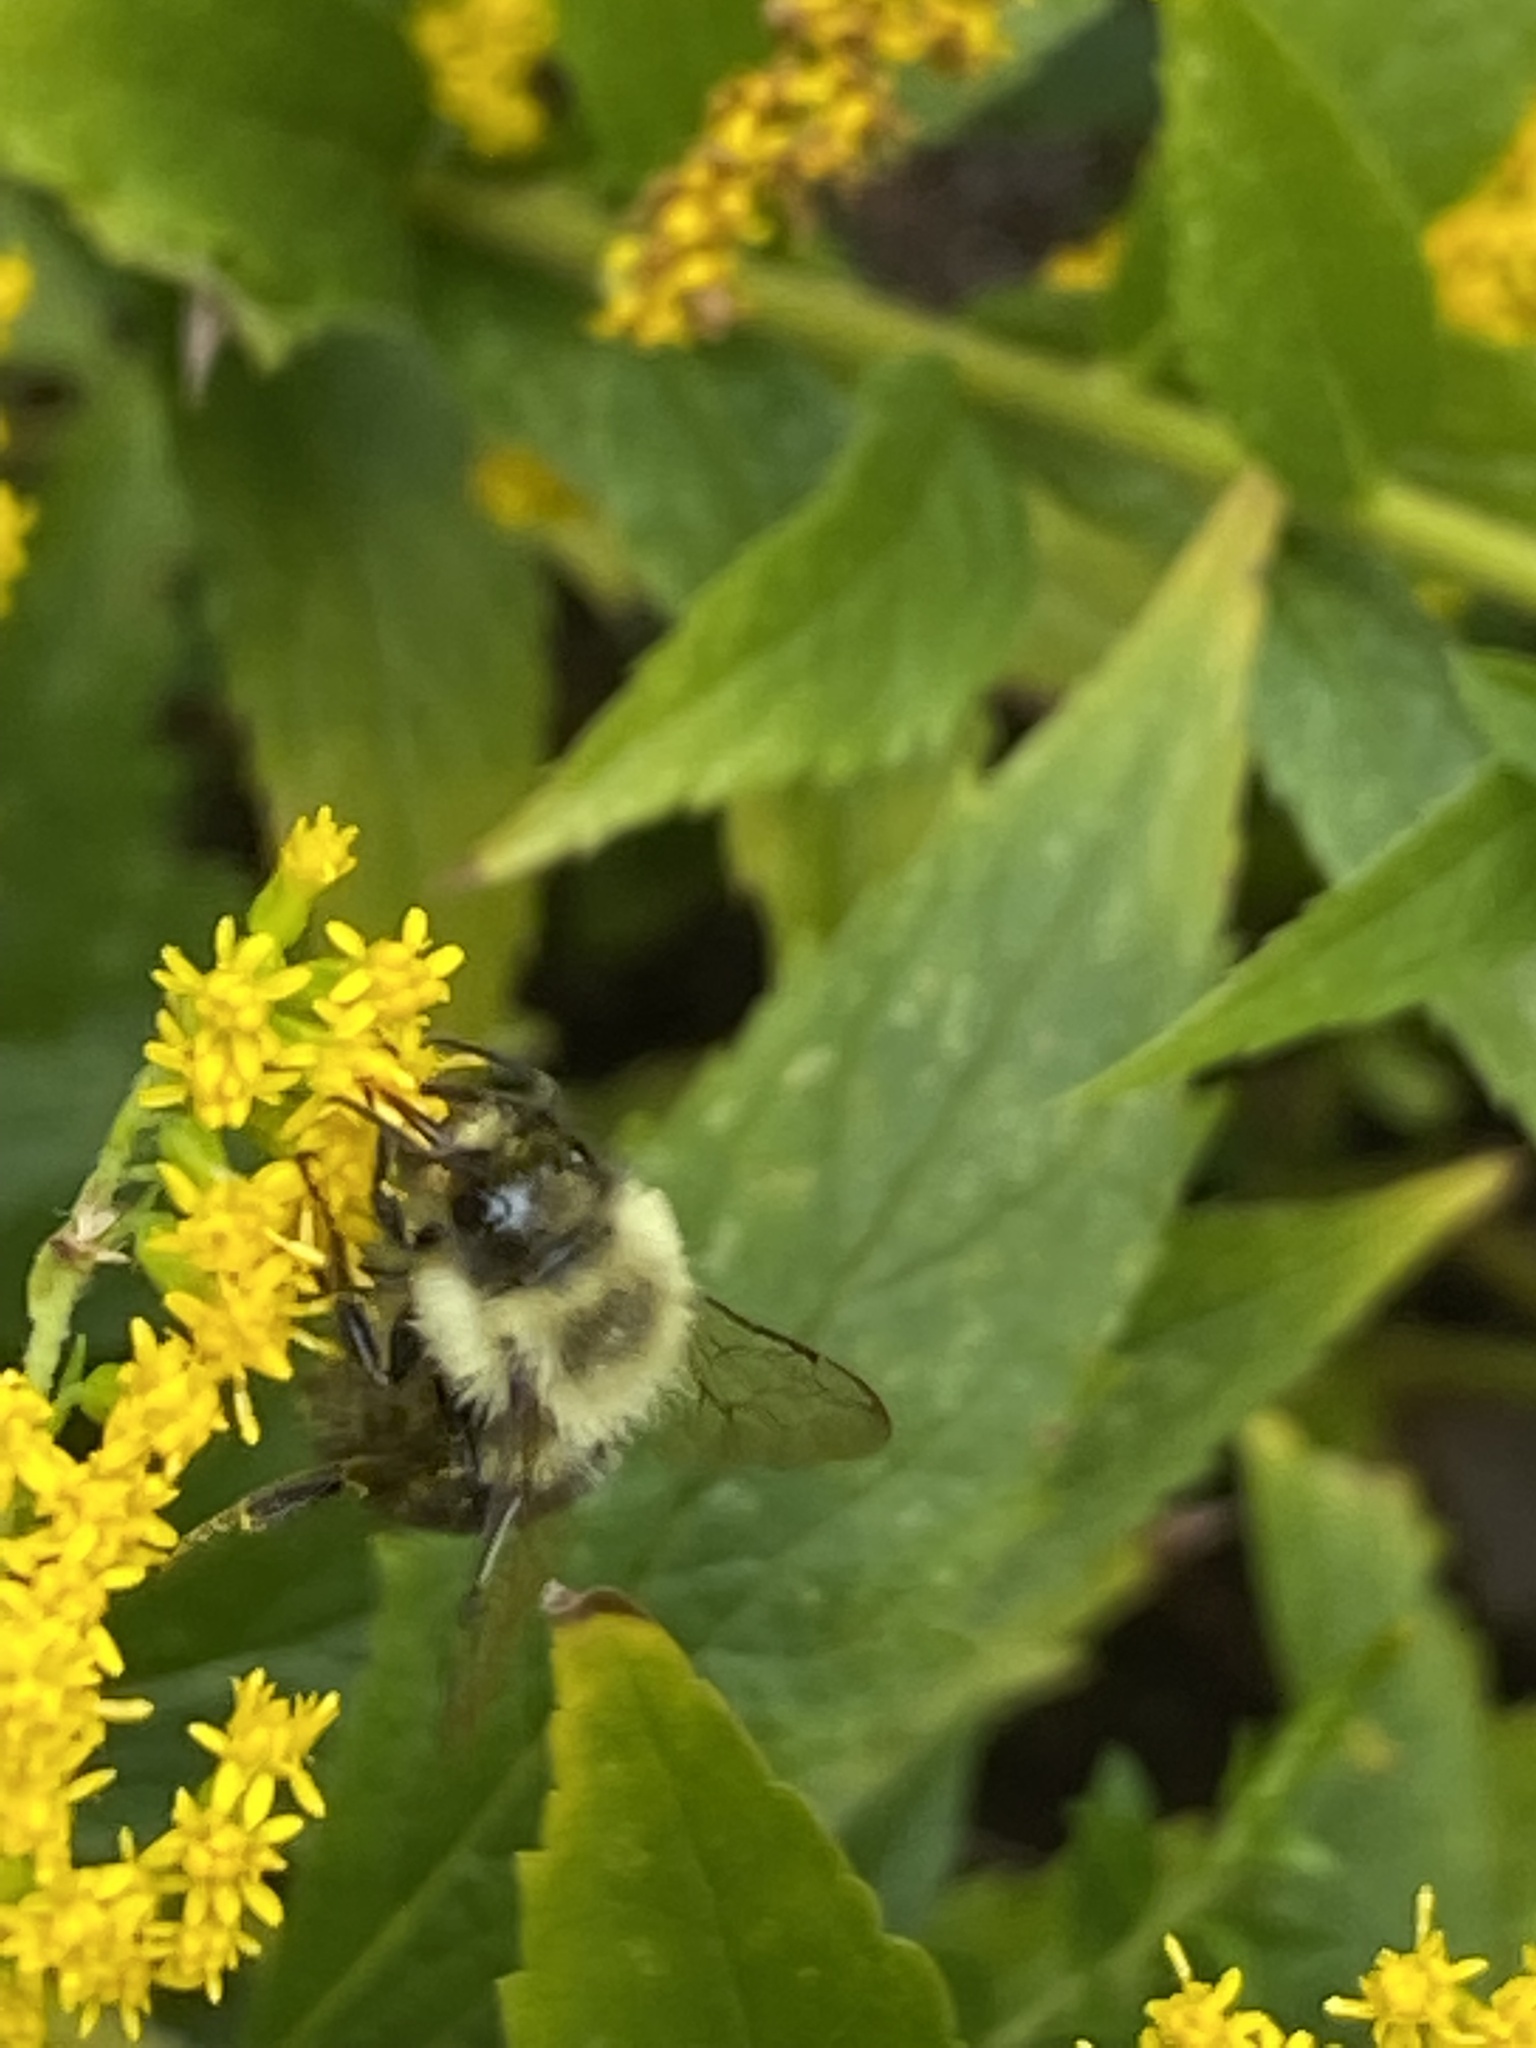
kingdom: Animalia
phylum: Arthropoda
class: Insecta
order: Hymenoptera
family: Apidae
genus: Bombus
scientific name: Bombus impatiens
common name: Common eastern bumble bee
